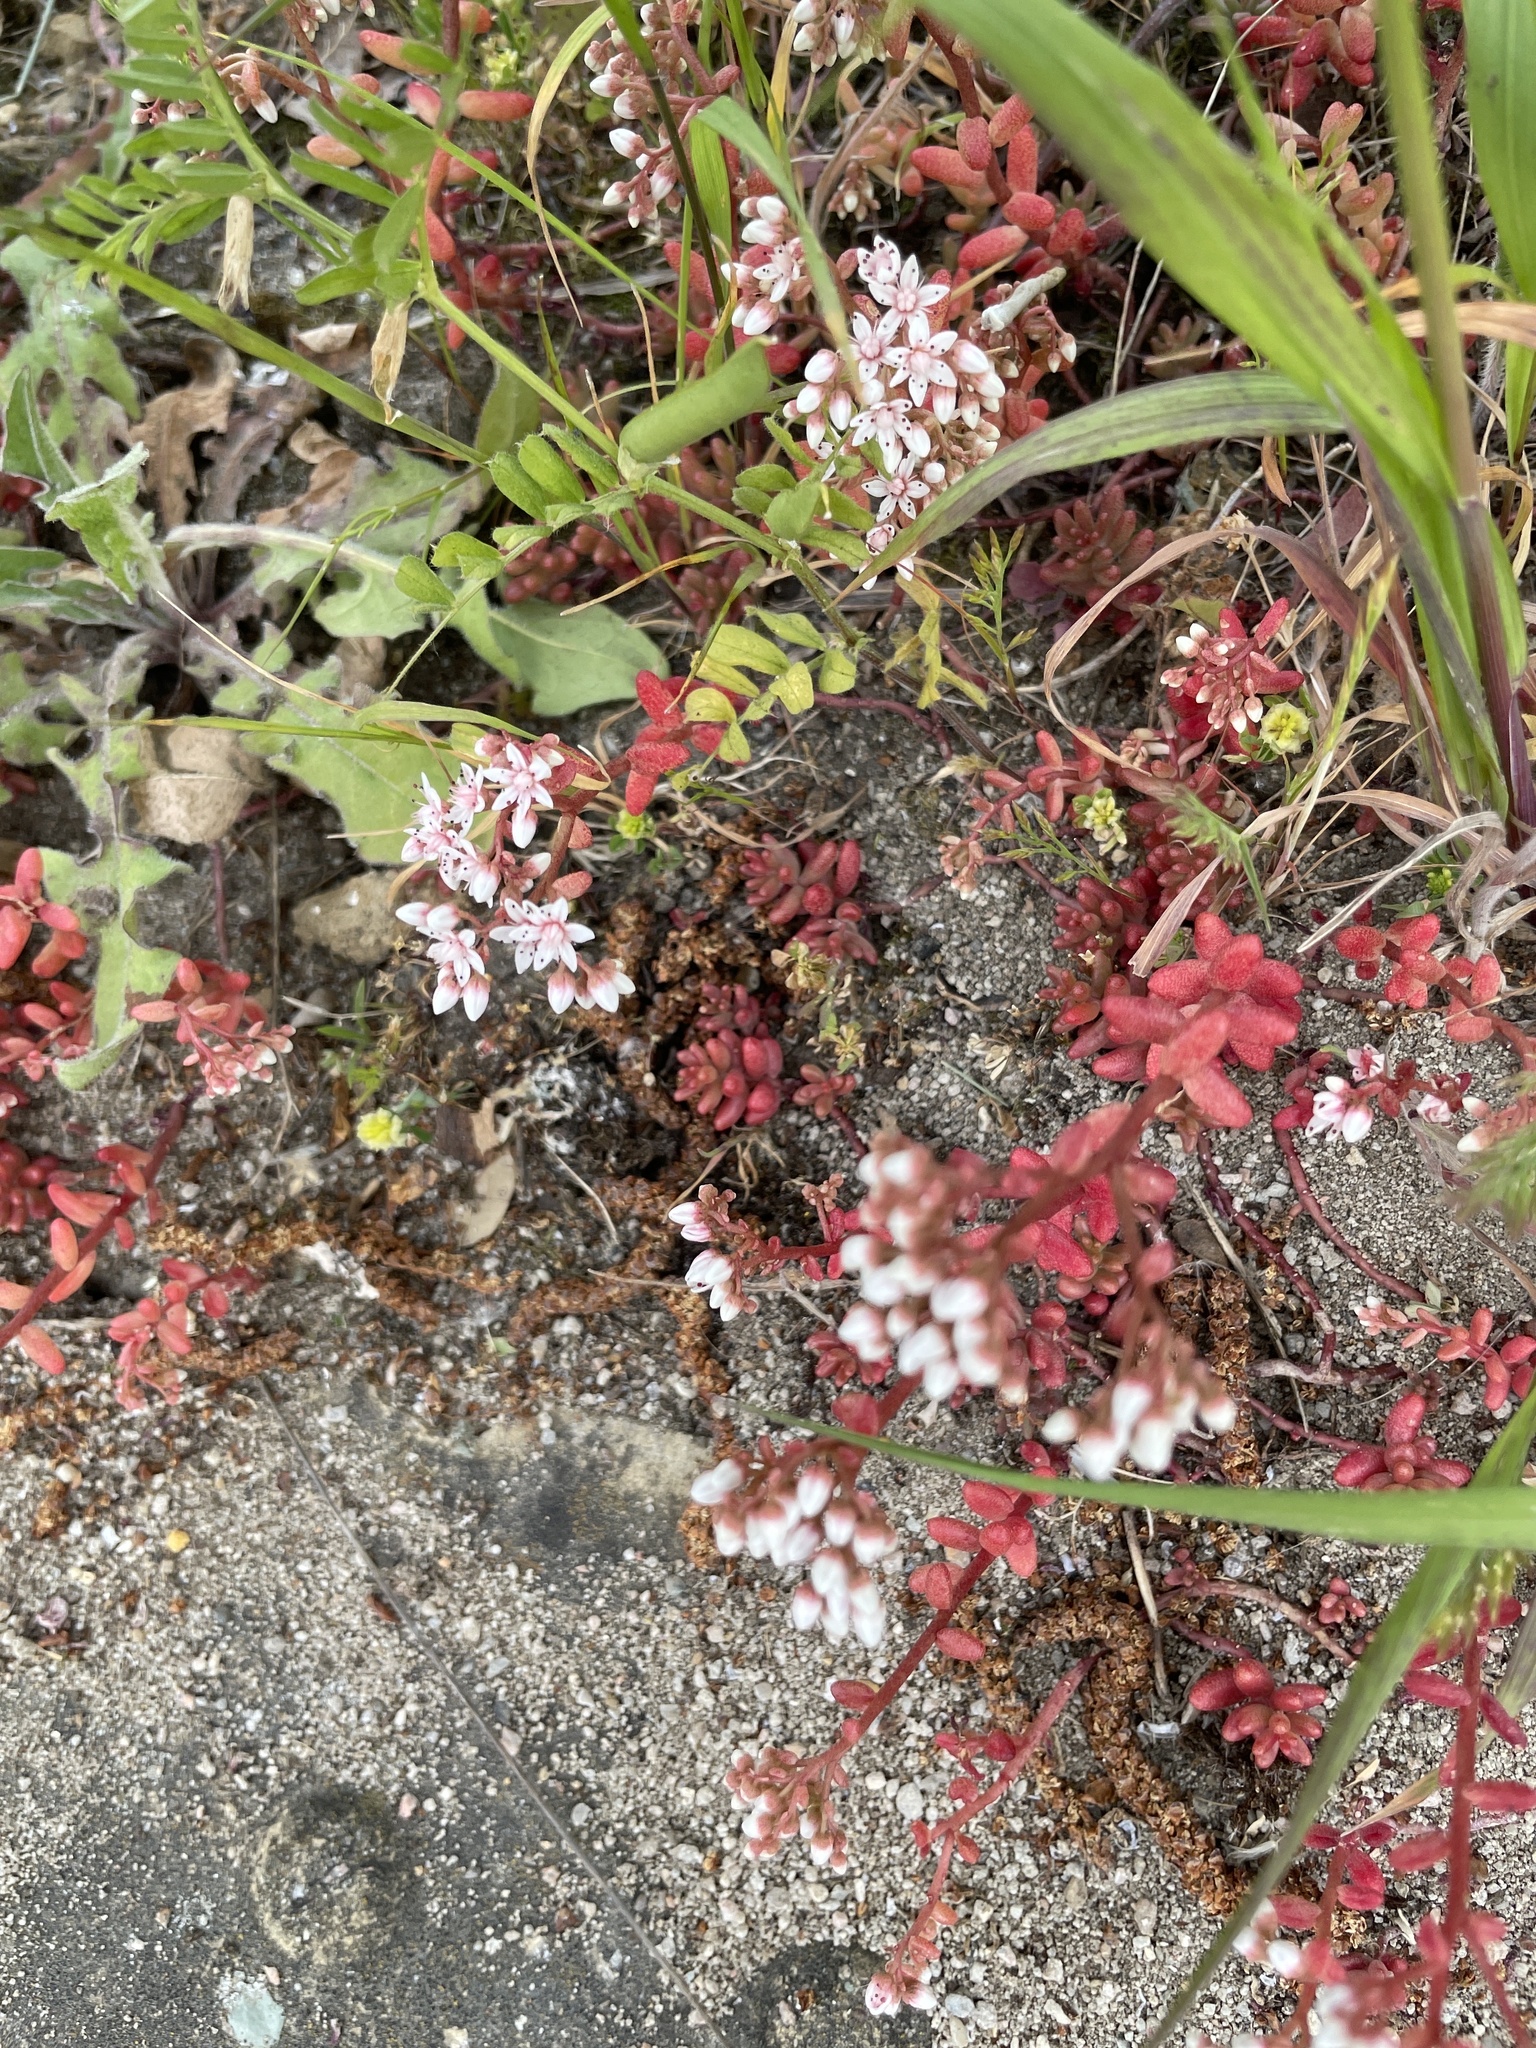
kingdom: Plantae
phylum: Tracheophyta
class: Magnoliopsida
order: Saxifragales
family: Crassulaceae
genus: Sedum
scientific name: Sedum album
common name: White stonecrop
